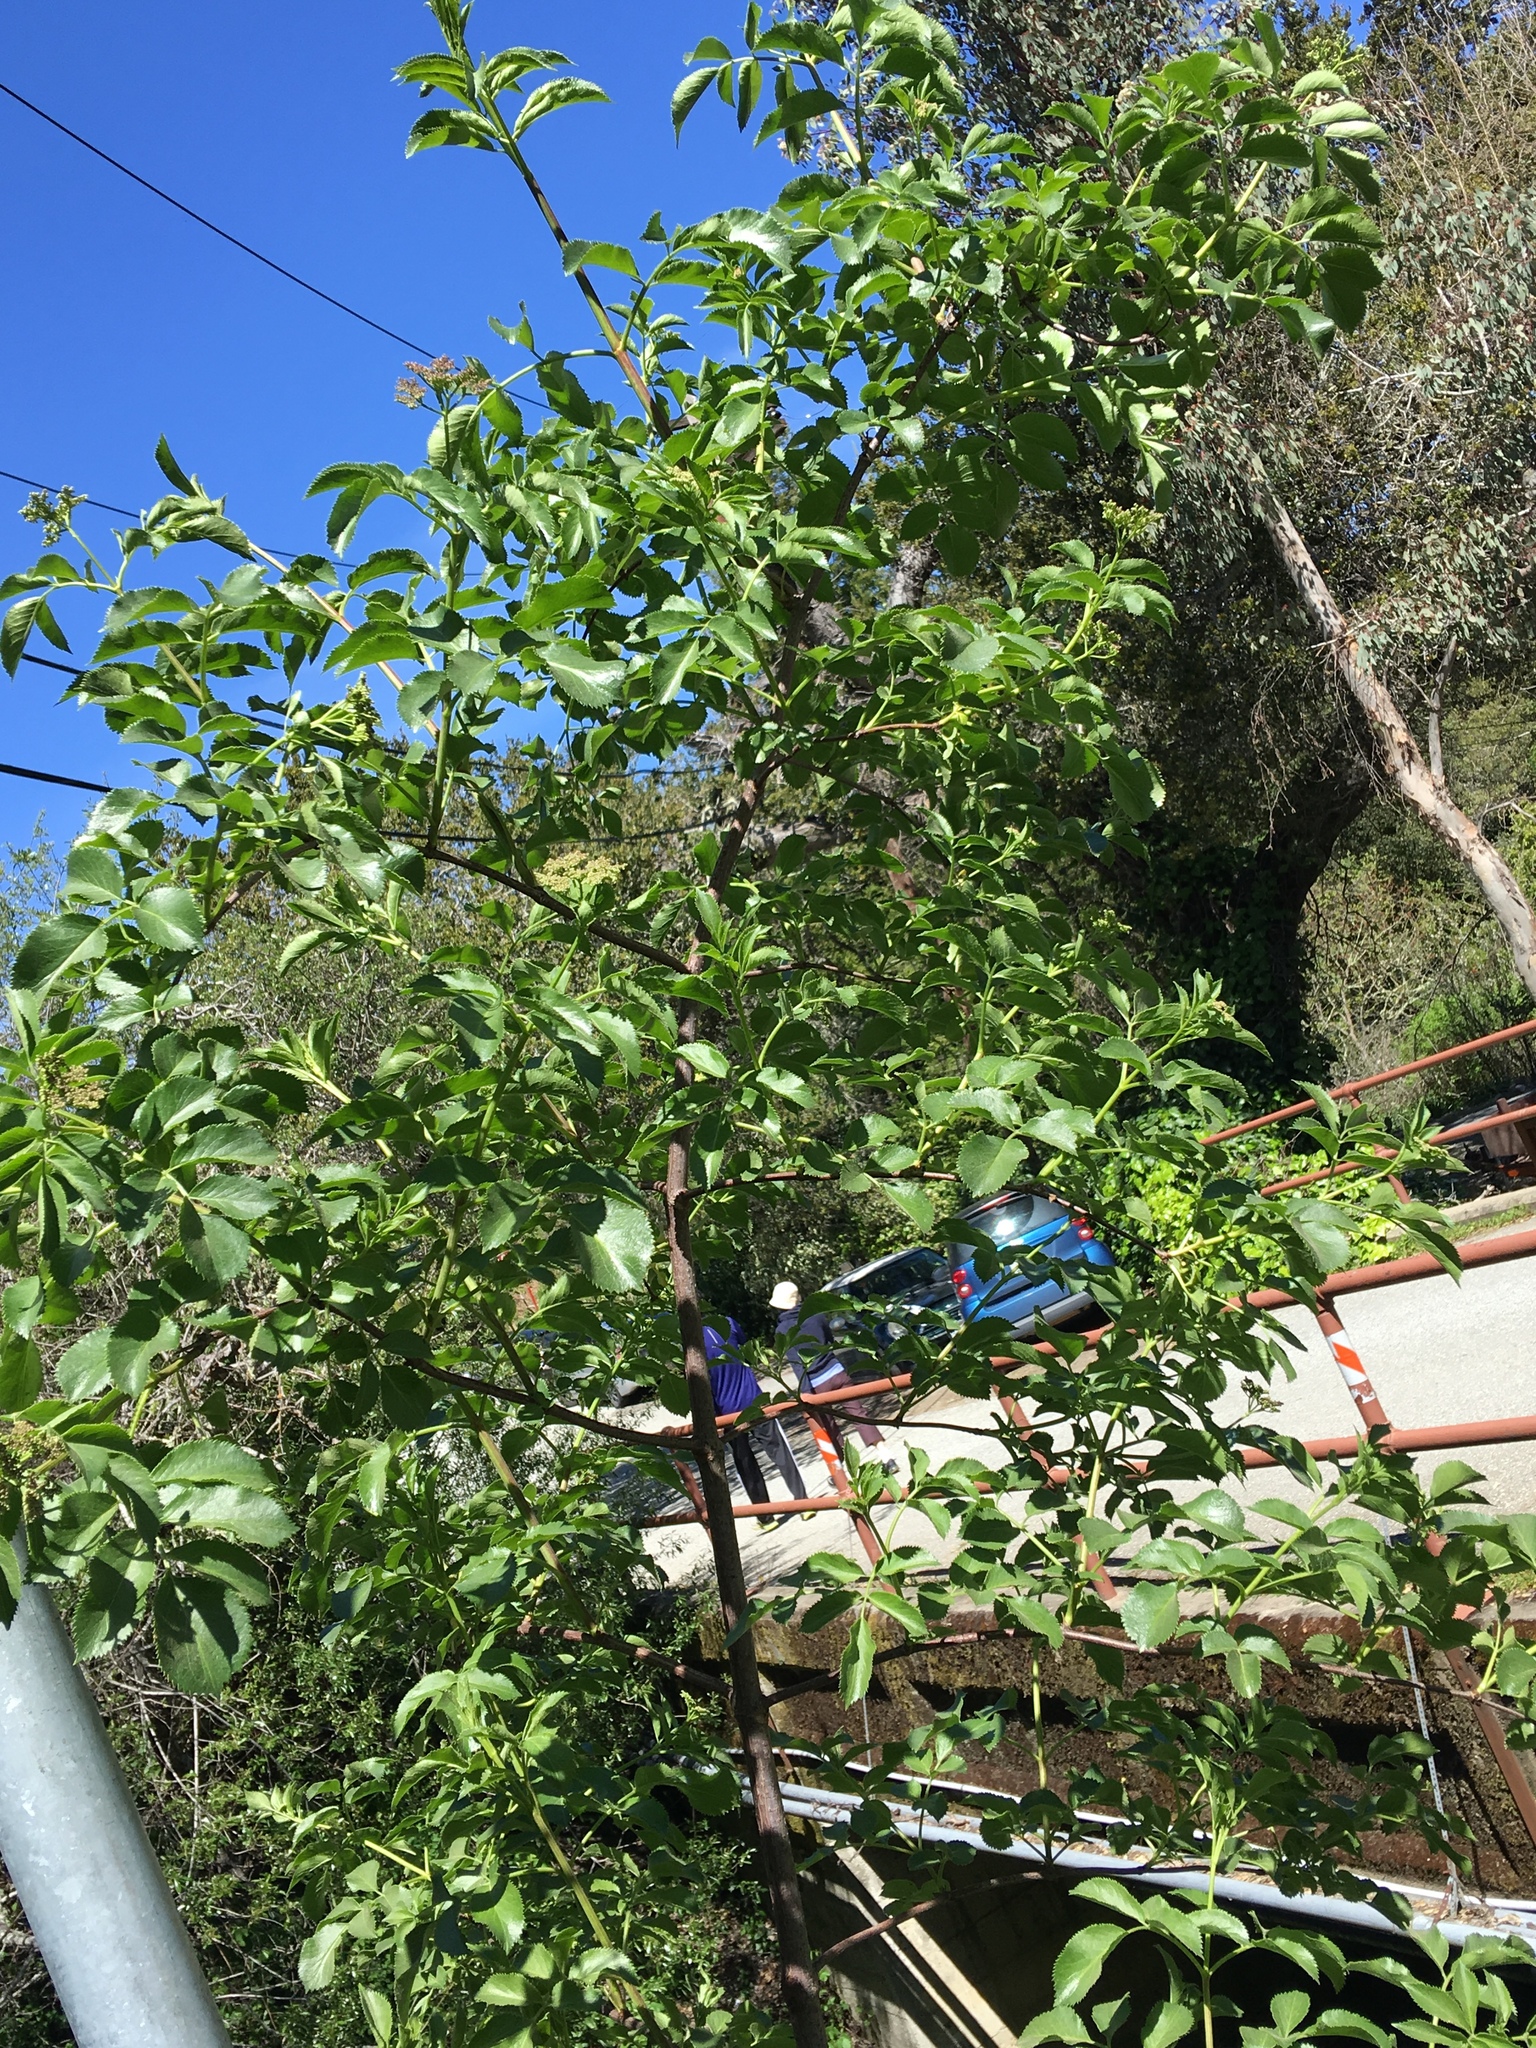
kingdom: Plantae
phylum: Tracheophyta
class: Magnoliopsida
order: Dipsacales
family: Viburnaceae
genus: Sambucus
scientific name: Sambucus cerulea
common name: Blue elder
